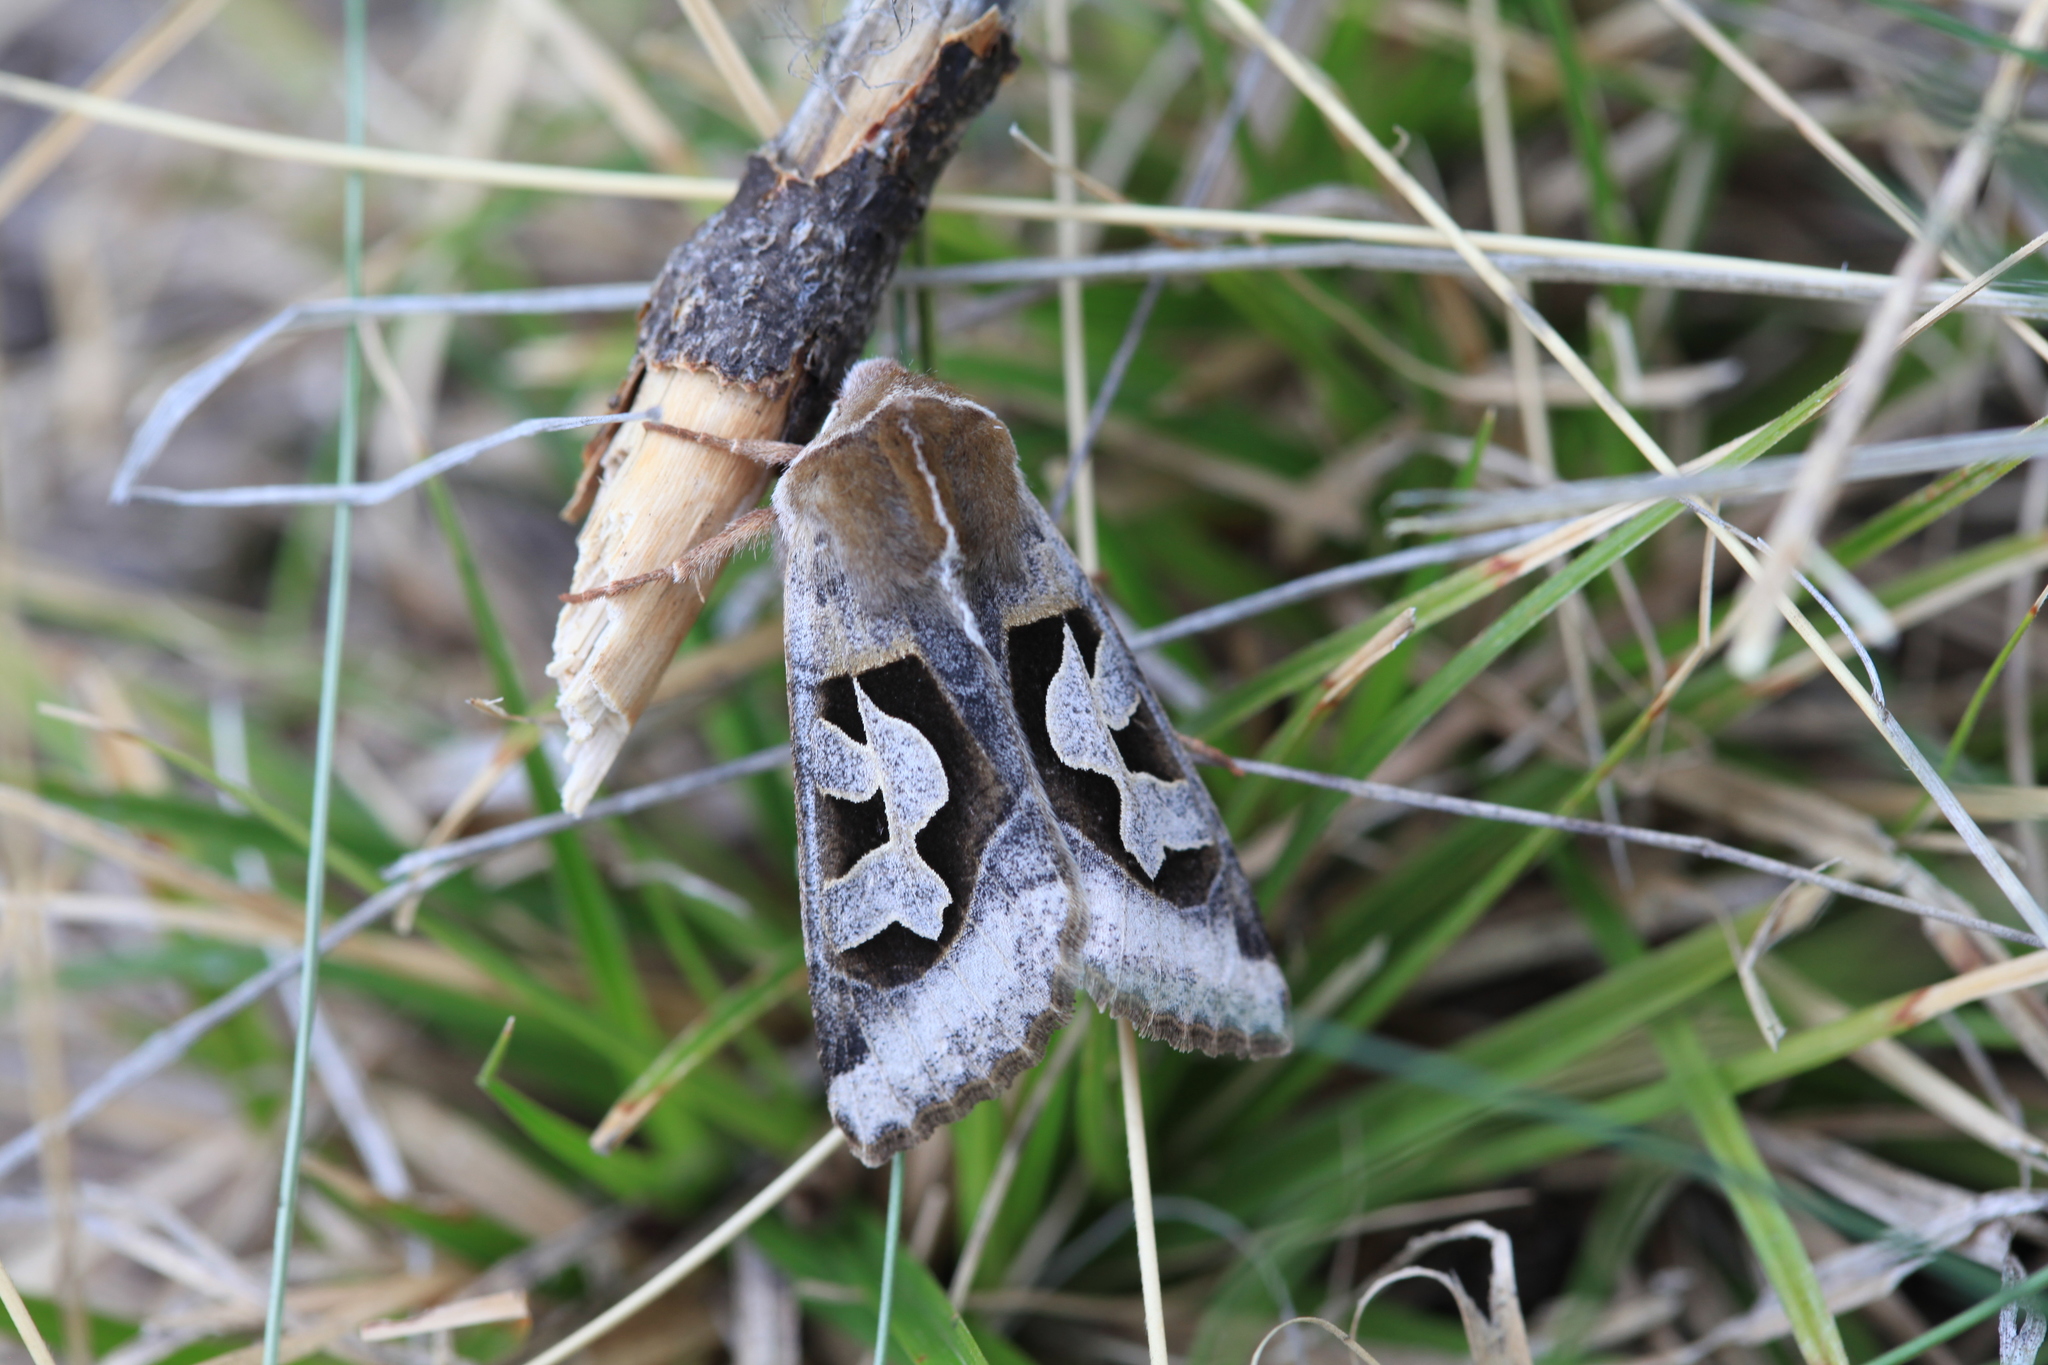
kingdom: Animalia
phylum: Arthropoda
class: Insecta
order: Lepidoptera
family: Noctuidae
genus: Perigrapha
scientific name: Perigrapha circumducta
